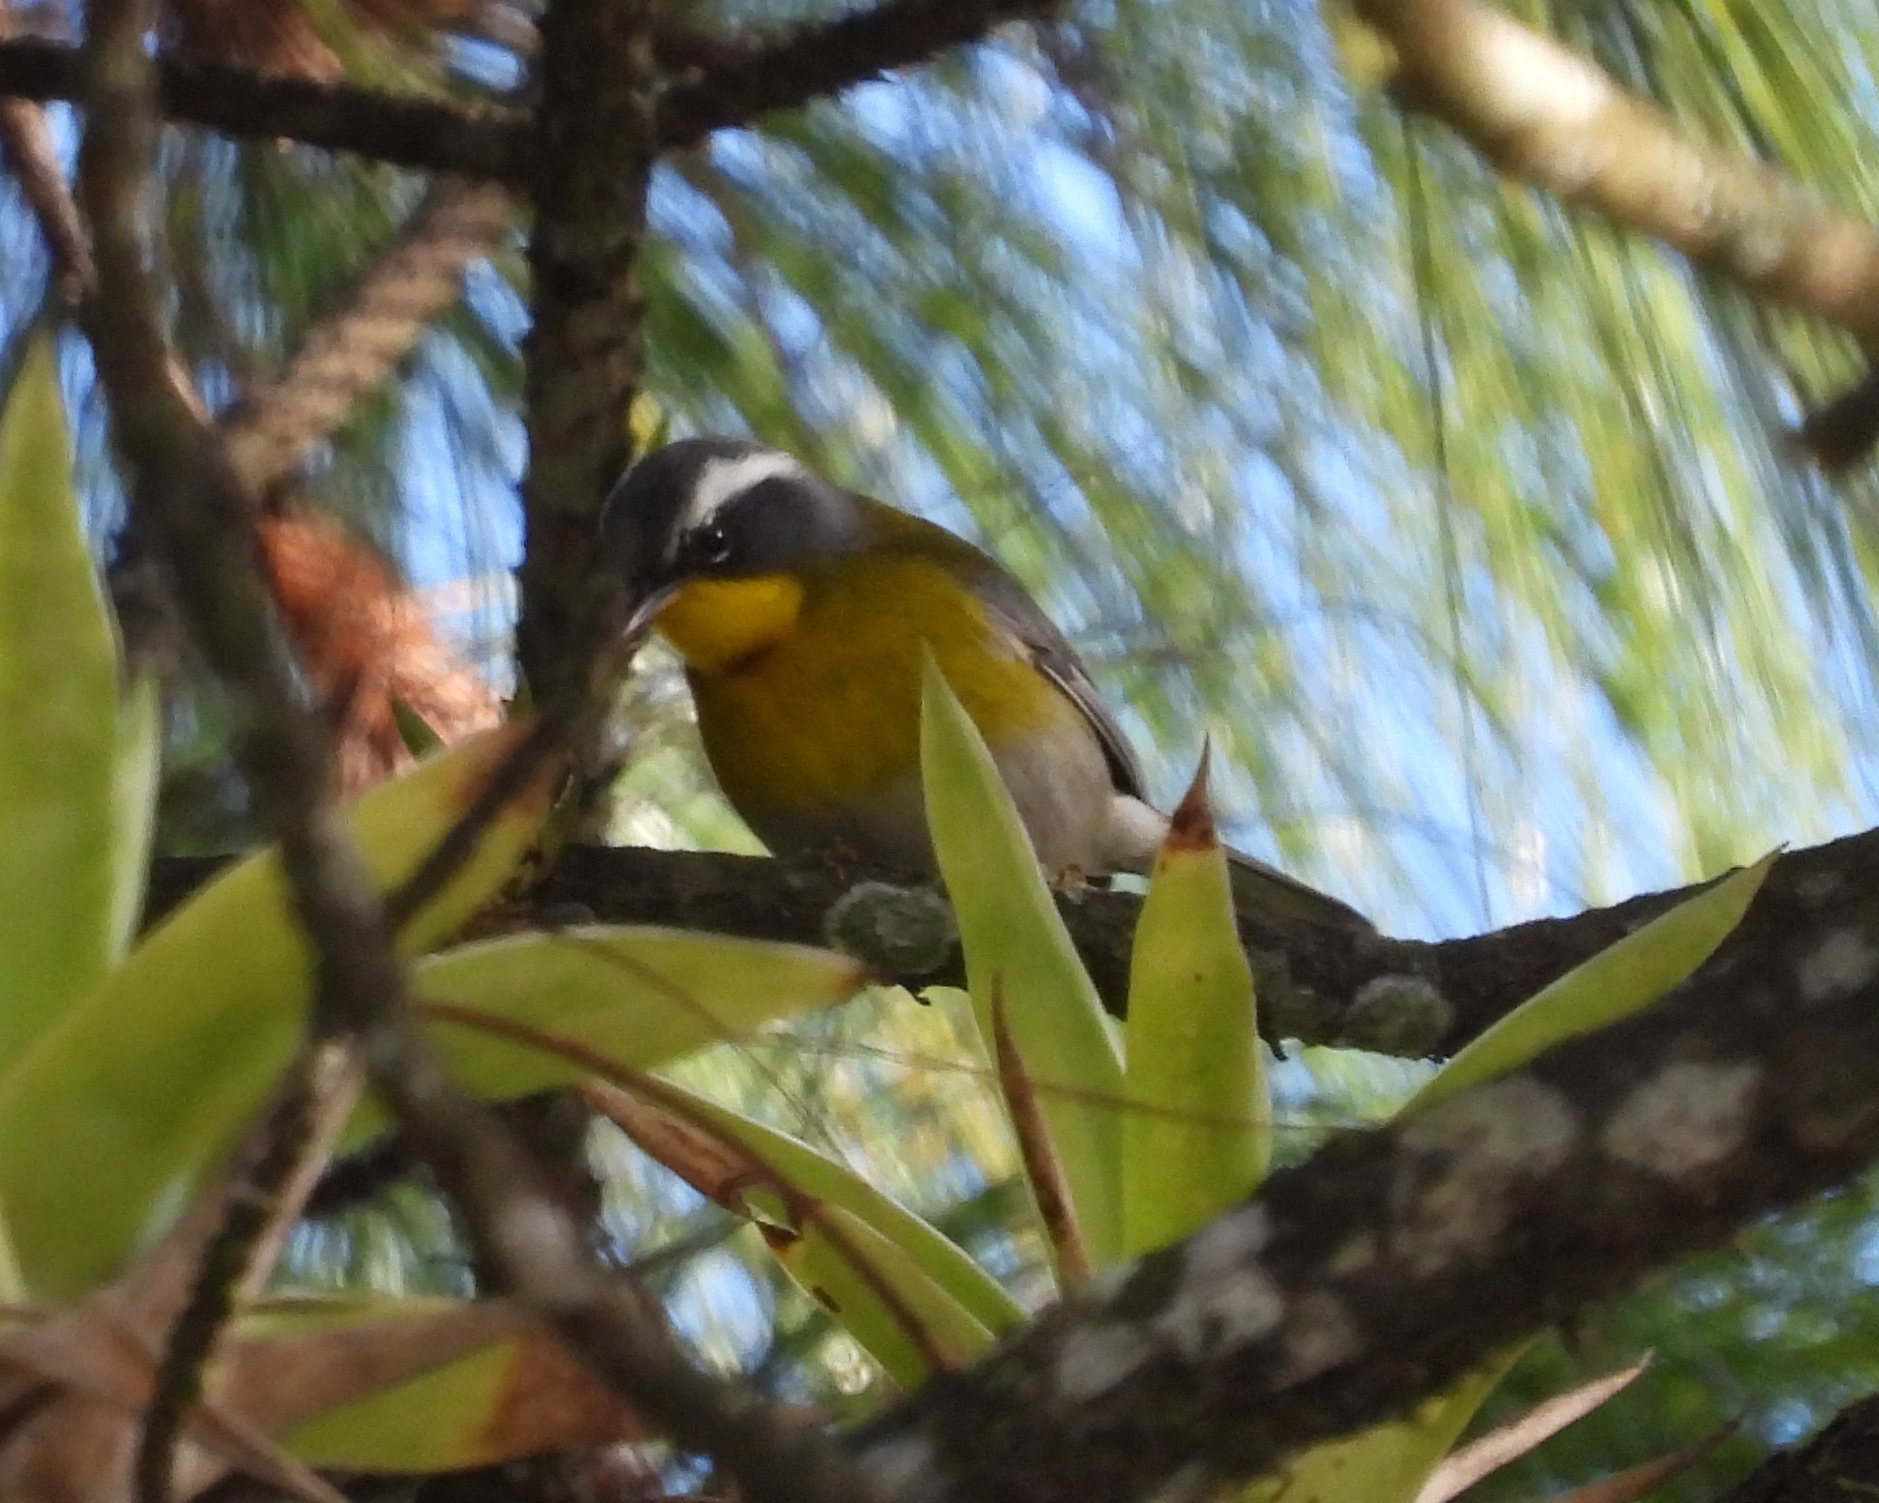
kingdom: Animalia
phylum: Chordata
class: Aves
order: Passeriformes
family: Parulidae
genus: Oreothlypis
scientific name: Oreothlypis superciliosa
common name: Crescent-chested warbler
